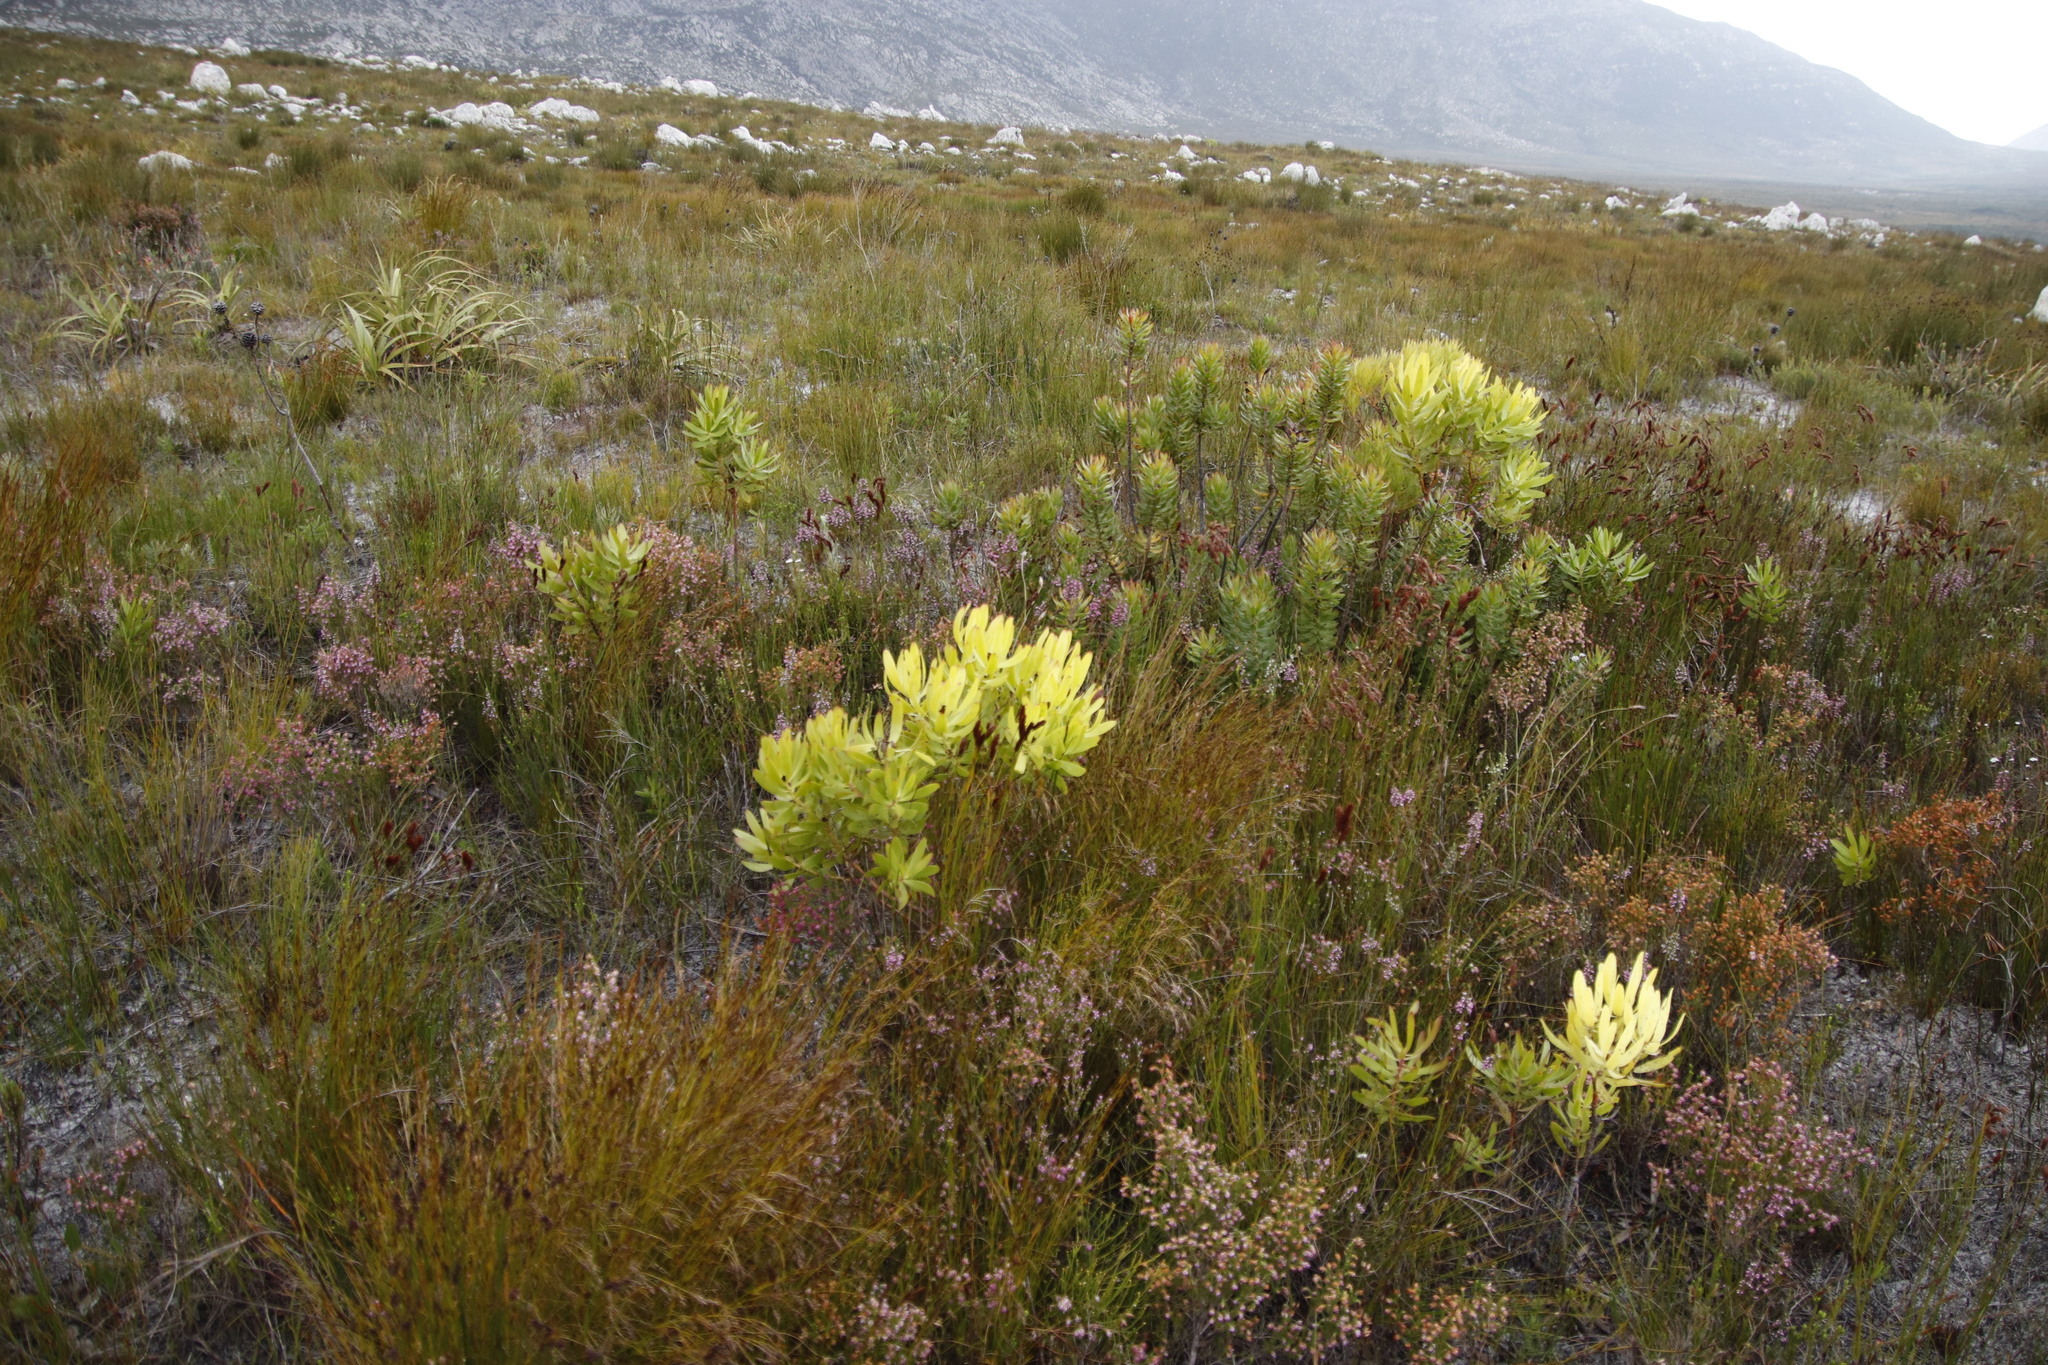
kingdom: Plantae
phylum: Tracheophyta
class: Magnoliopsida
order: Proteales
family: Proteaceae
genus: Leucadendron
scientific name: Leucadendron microcephalum
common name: Oilbract conebush
